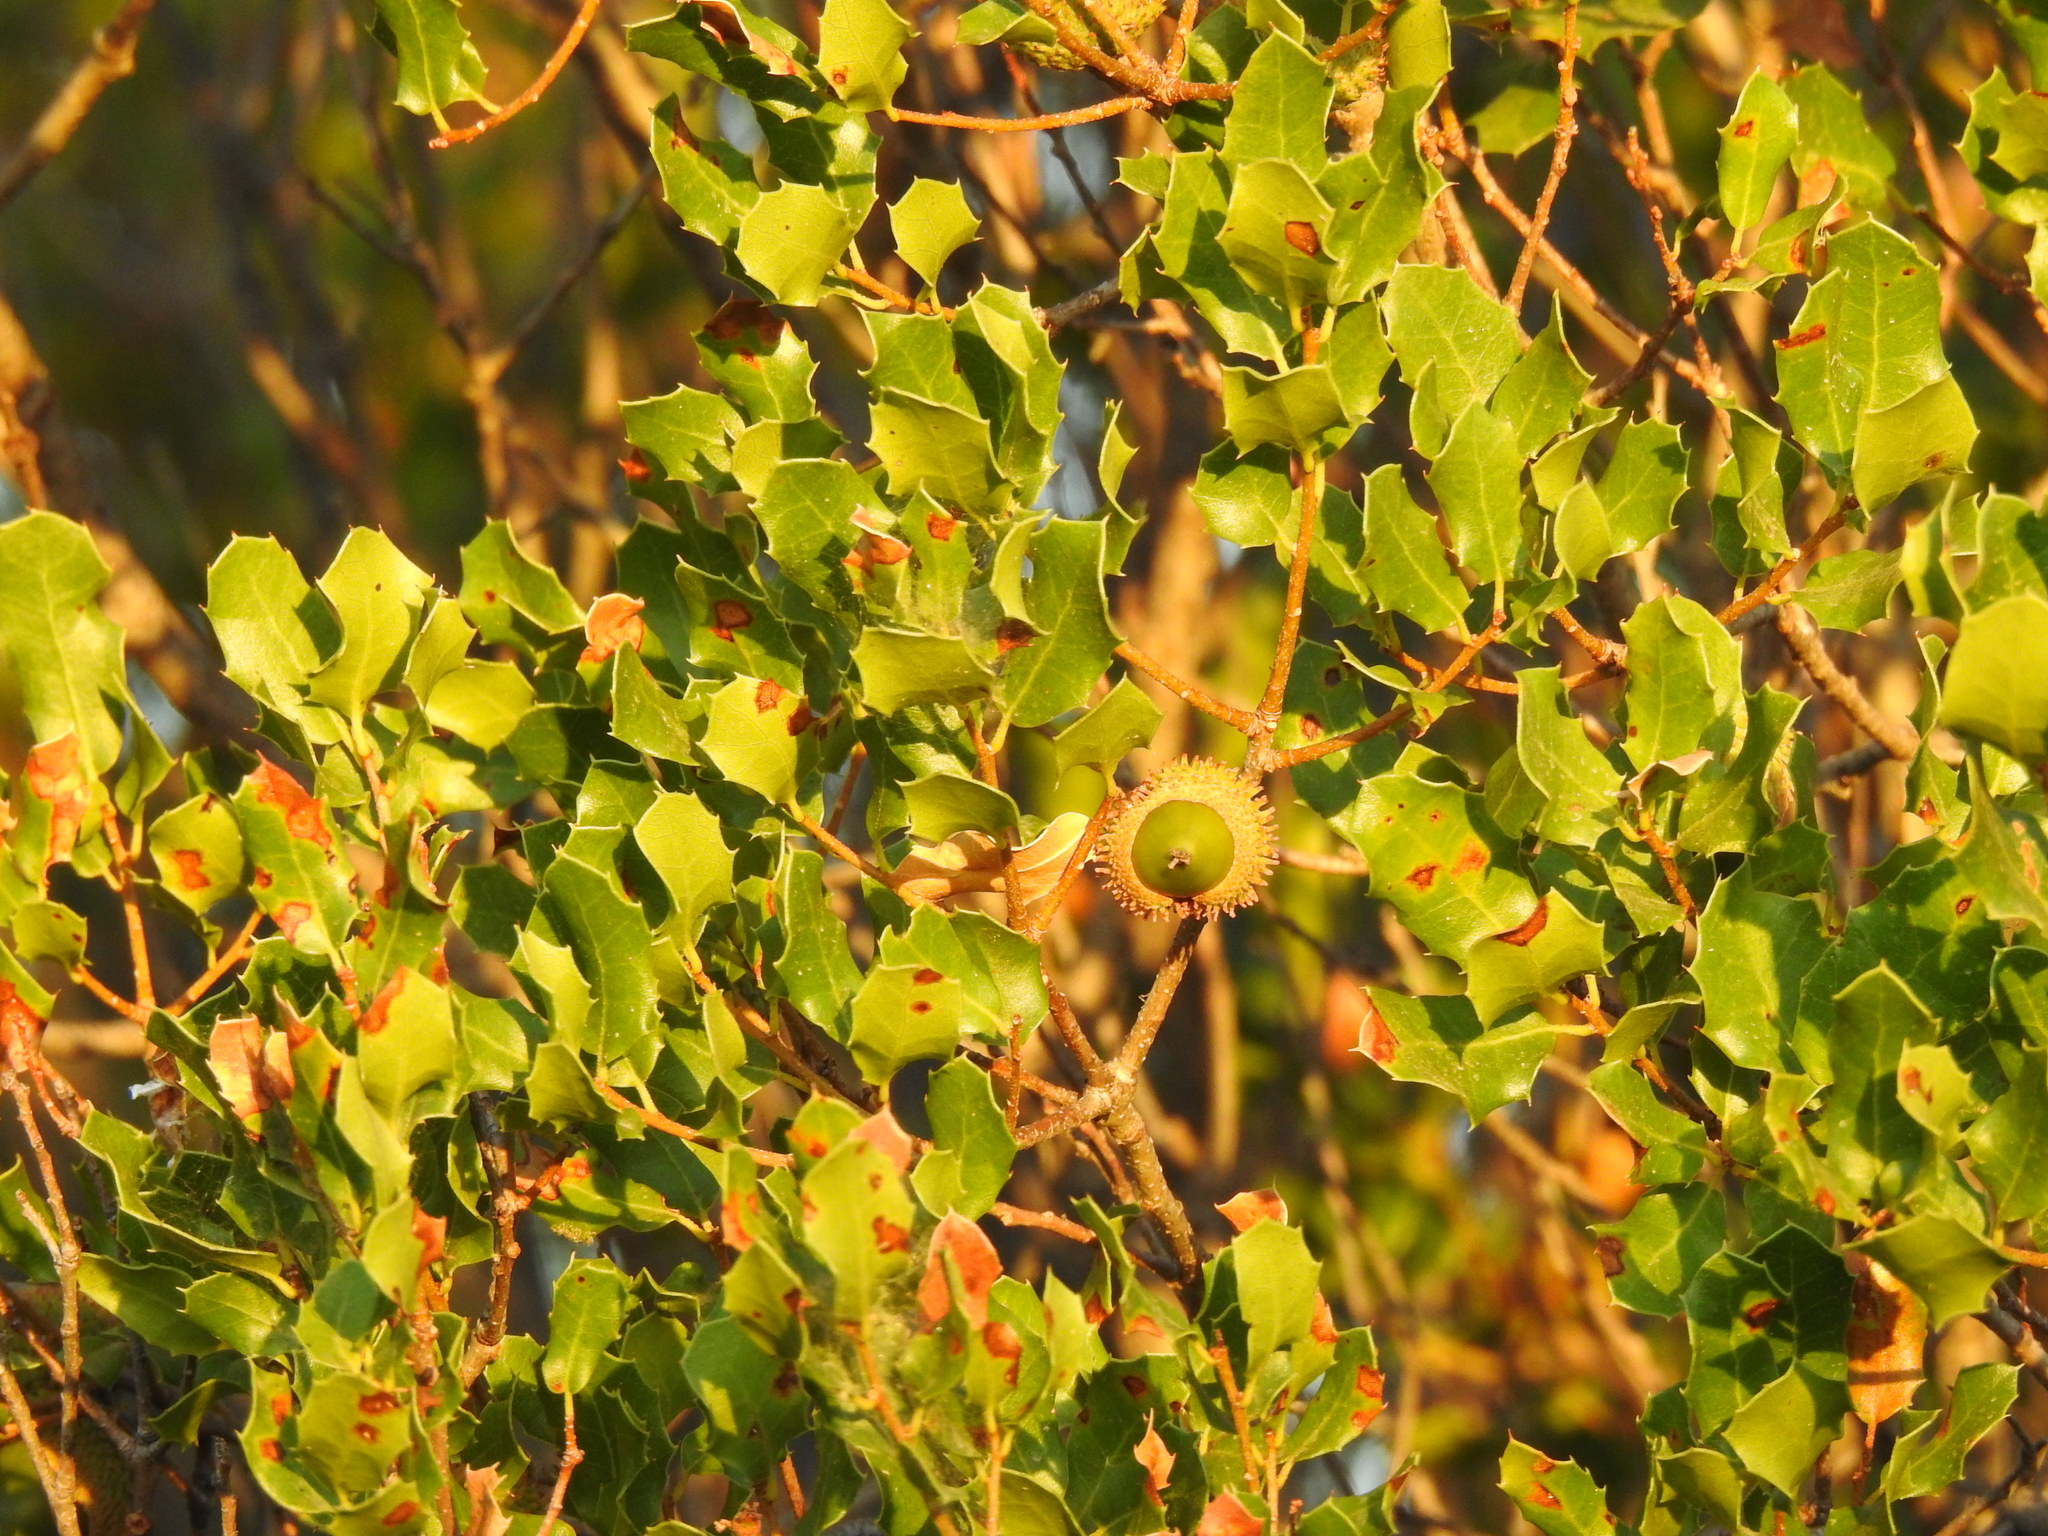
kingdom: Plantae
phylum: Tracheophyta
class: Magnoliopsida
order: Fagales
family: Fagaceae
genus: Quercus
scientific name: Quercus coccifera
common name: Kermes oak
